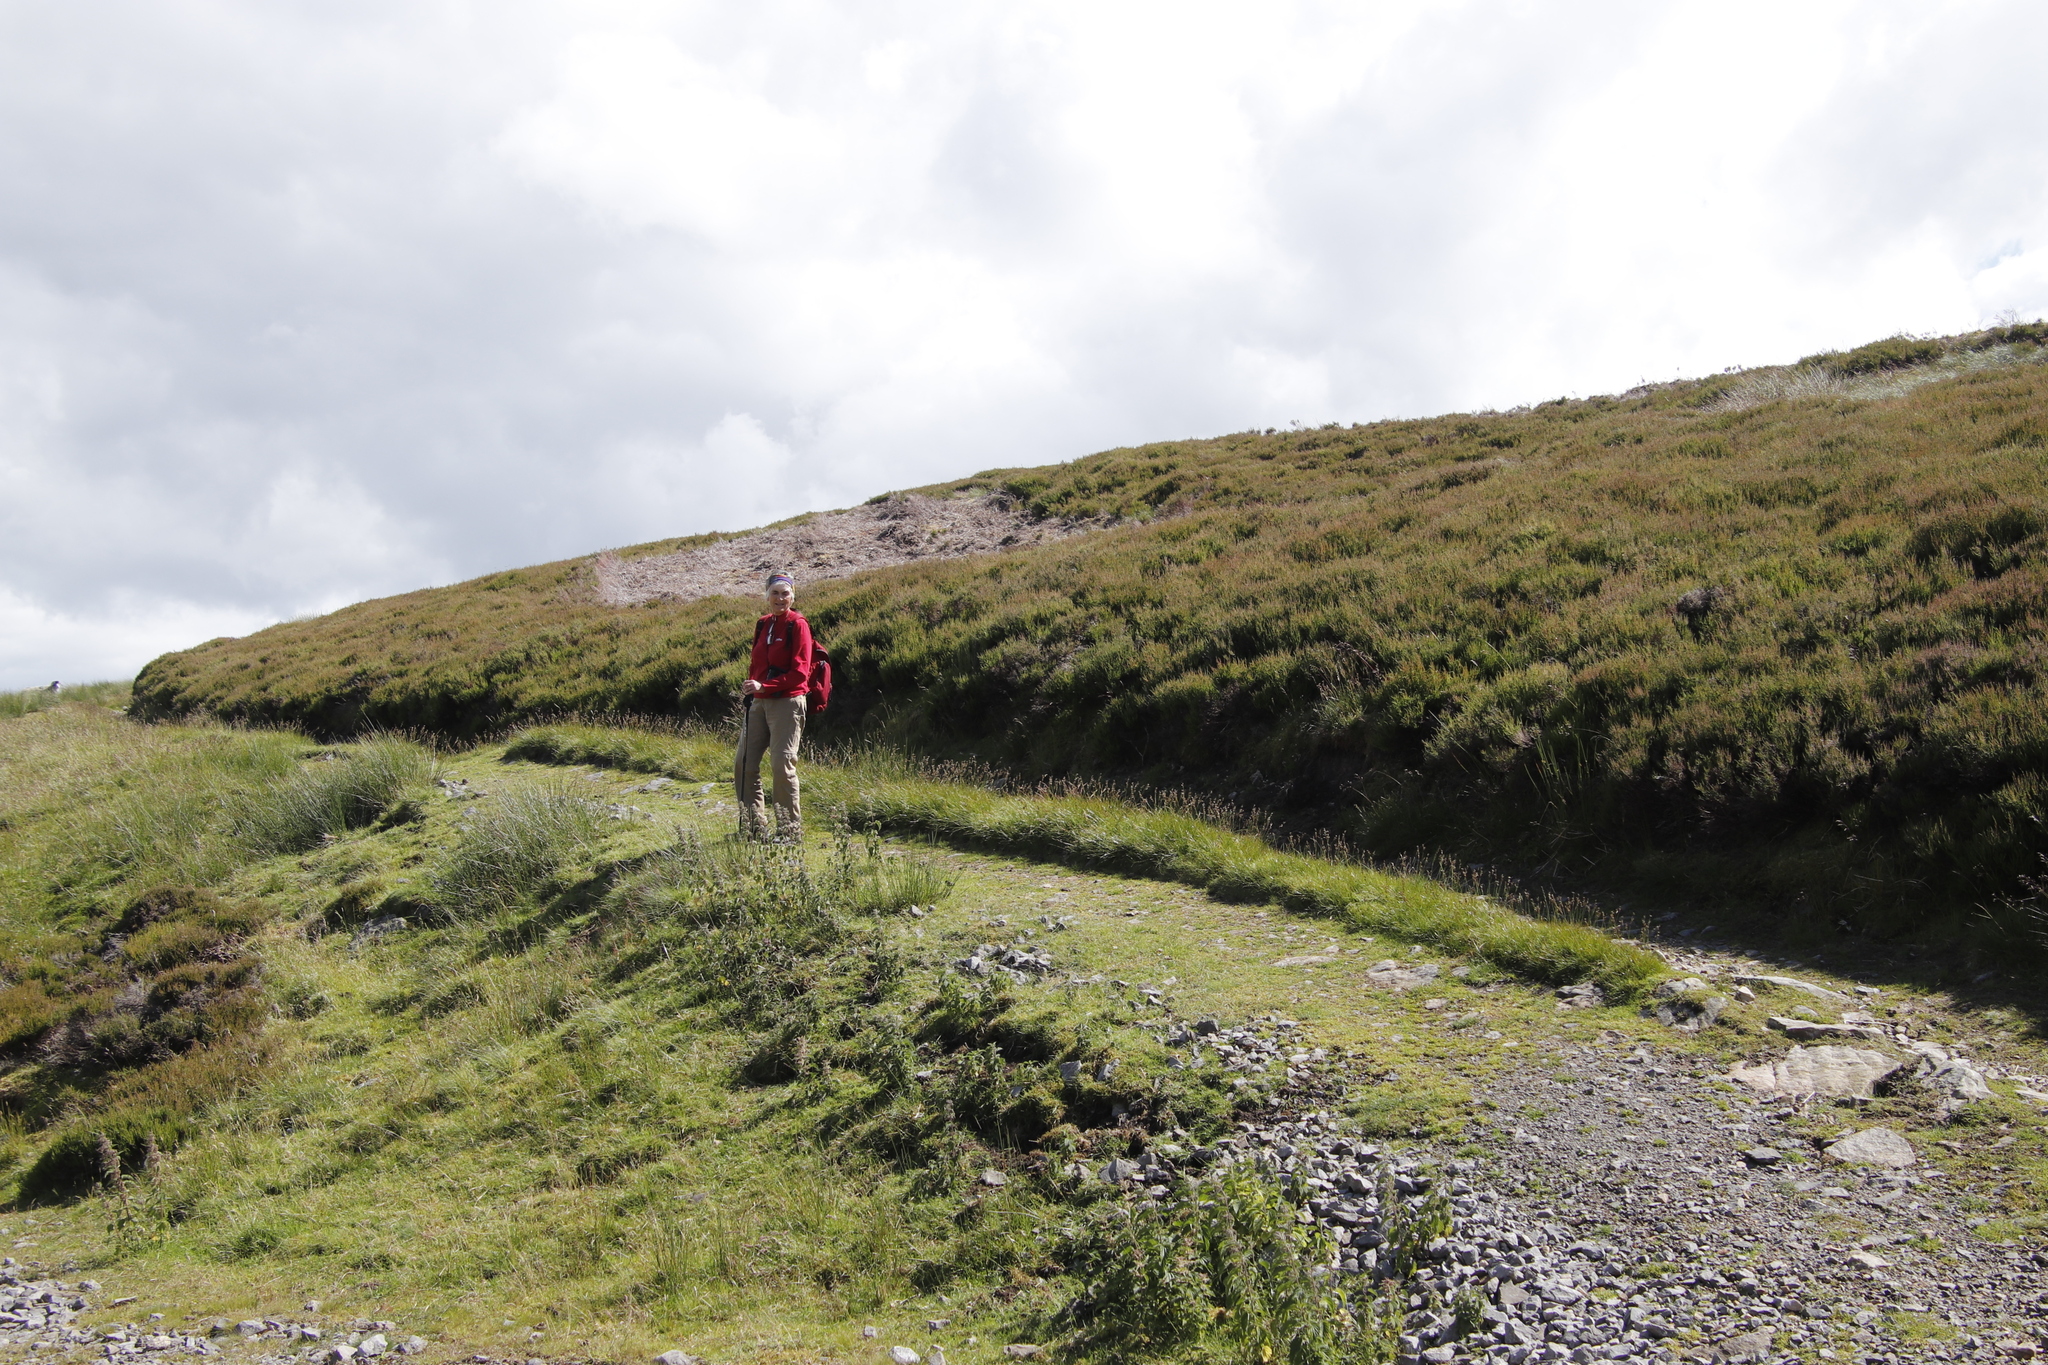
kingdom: Plantae
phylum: Tracheophyta
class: Magnoliopsida
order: Ericales
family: Ericaceae
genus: Calluna
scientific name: Calluna vulgaris
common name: Heather
